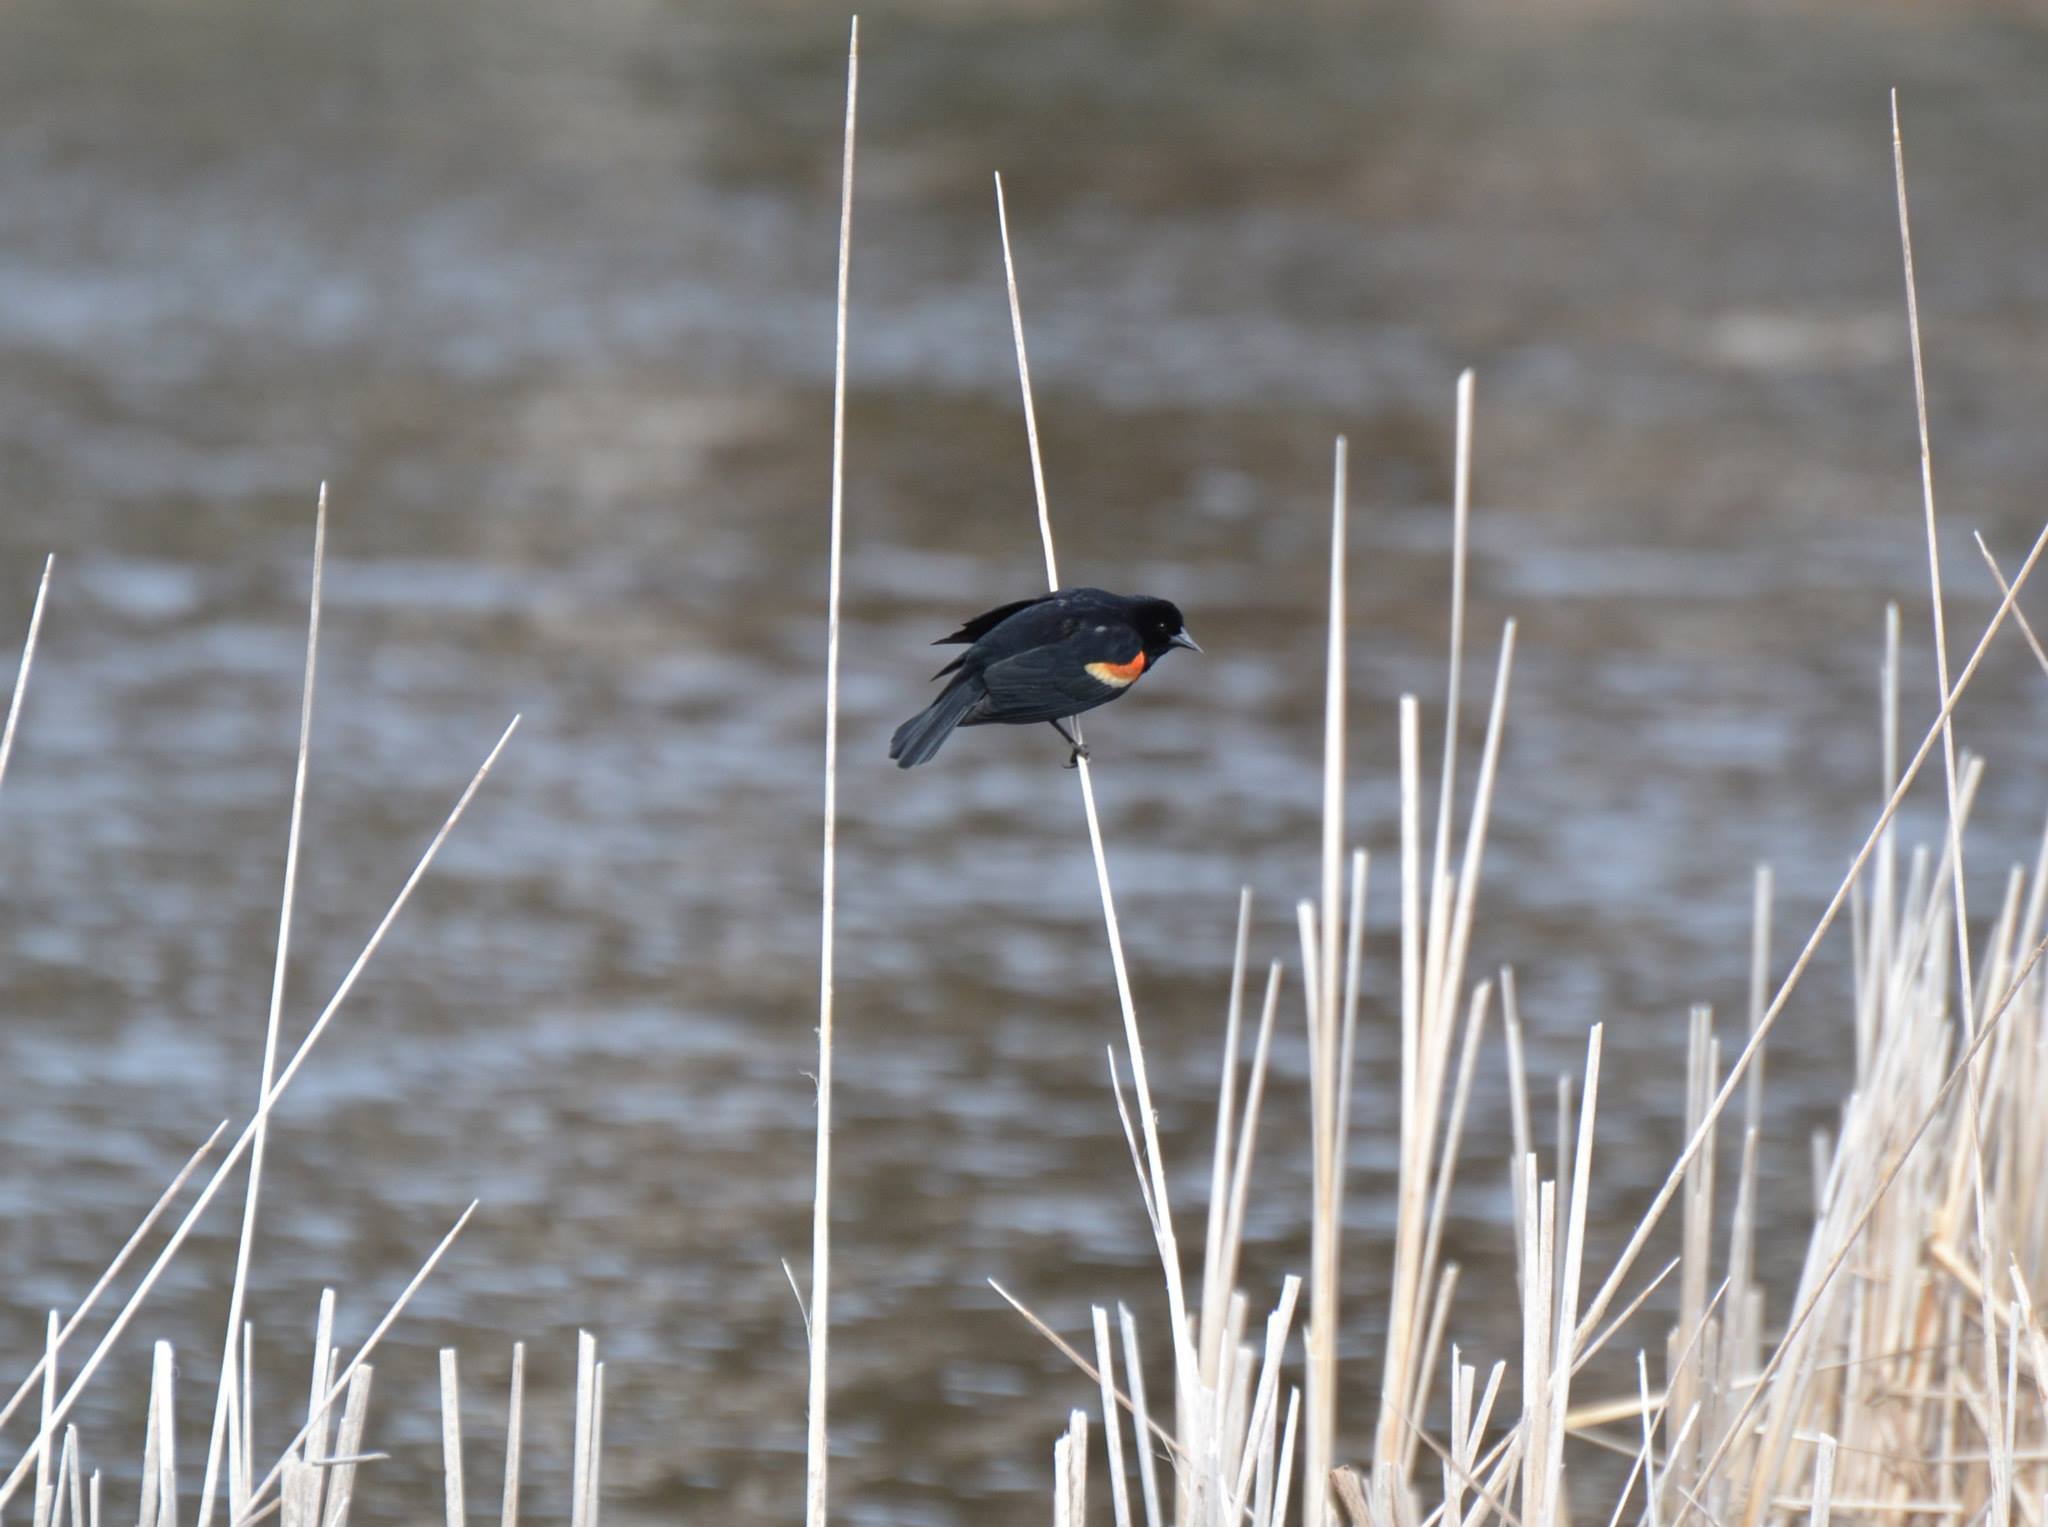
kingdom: Animalia
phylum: Chordata
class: Aves
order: Passeriformes
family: Icteridae
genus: Agelaius
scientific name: Agelaius phoeniceus
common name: Red-winged blackbird
